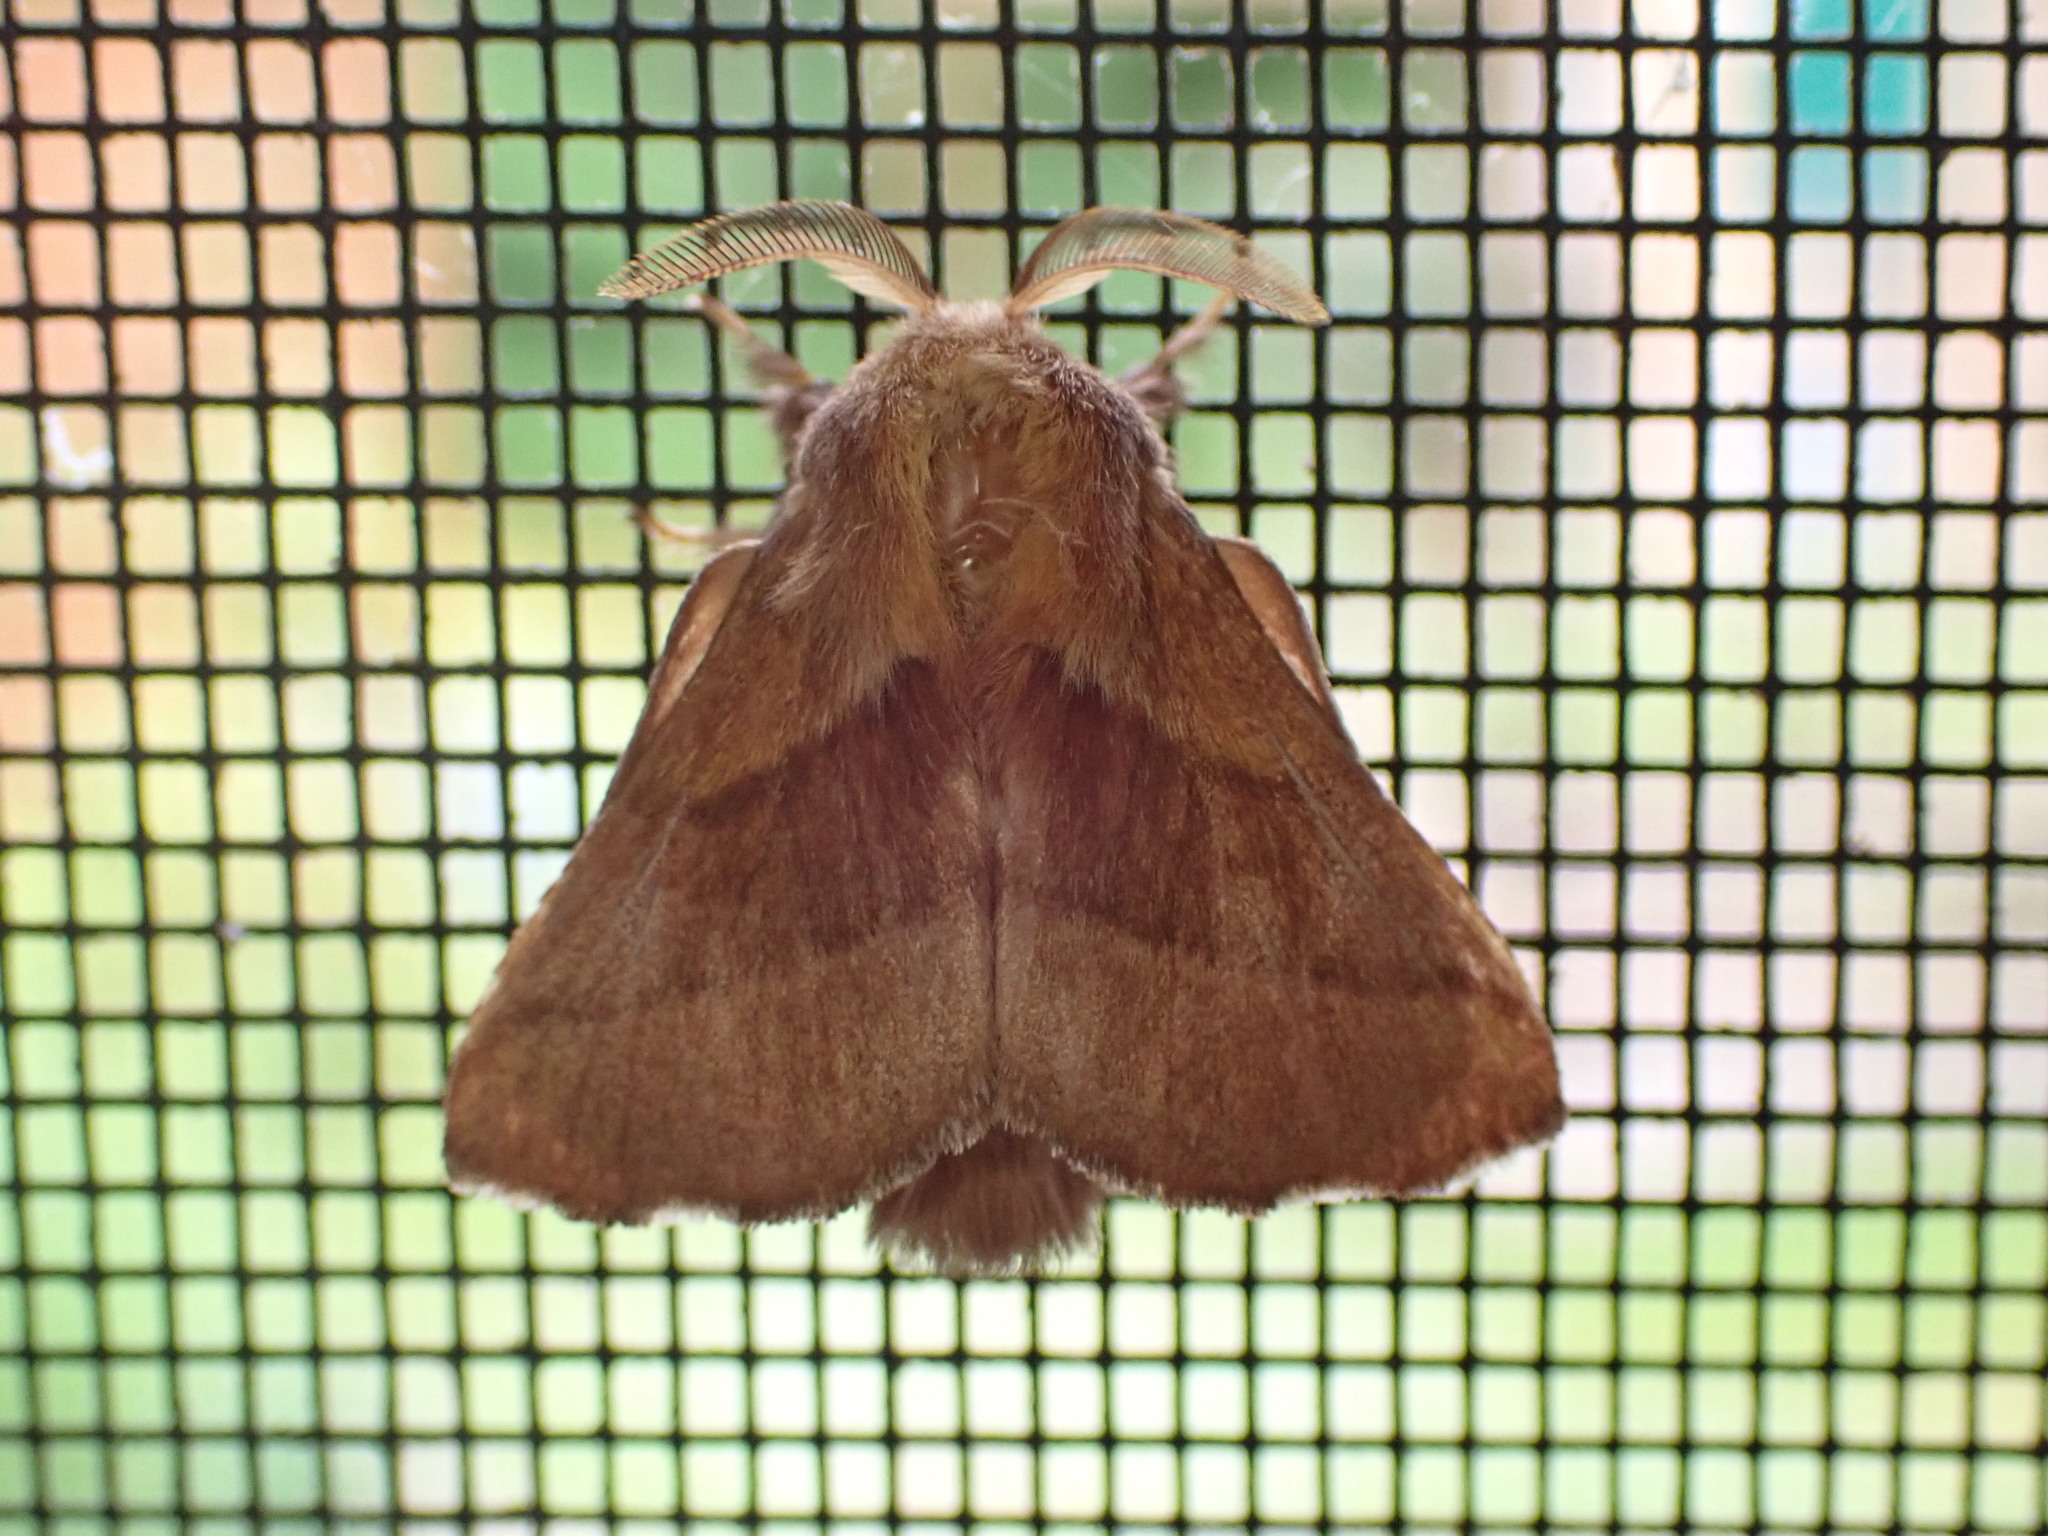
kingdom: Animalia
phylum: Arthropoda
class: Insecta
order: Lepidoptera
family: Lasiocampidae
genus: Malacosoma
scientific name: Malacosoma disstria
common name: Forest tent caterpillar
